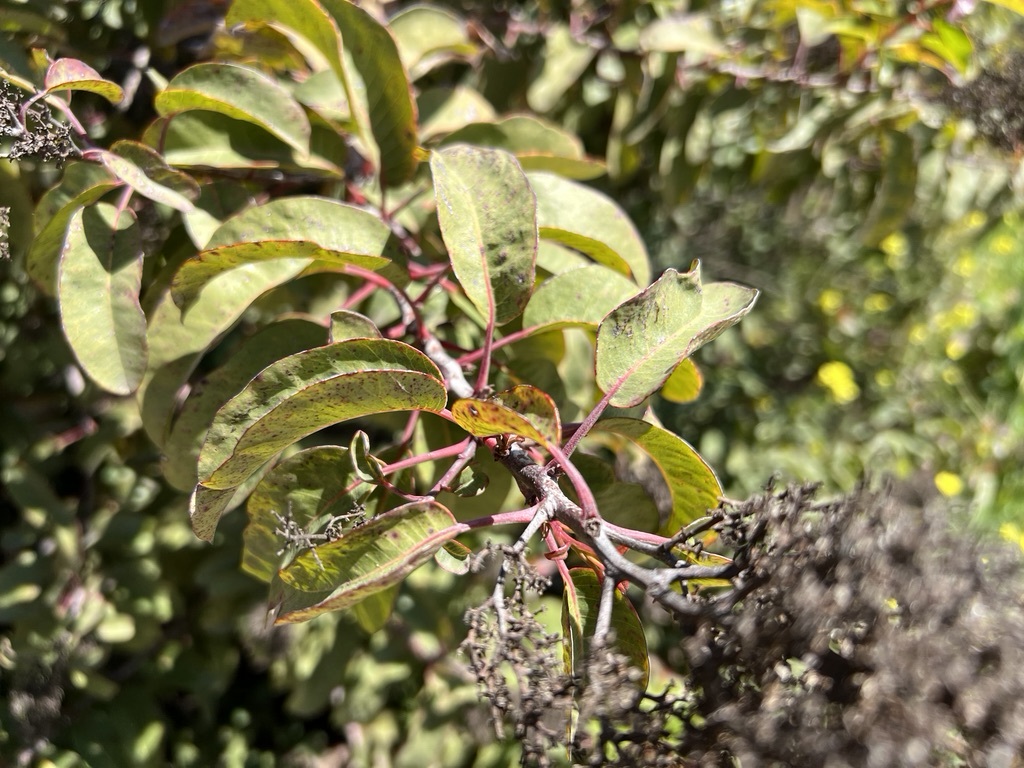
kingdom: Plantae
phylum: Tracheophyta
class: Magnoliopsida
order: Sapindales
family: Anacardiaceae
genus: Malosma
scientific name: Malosma laurina
